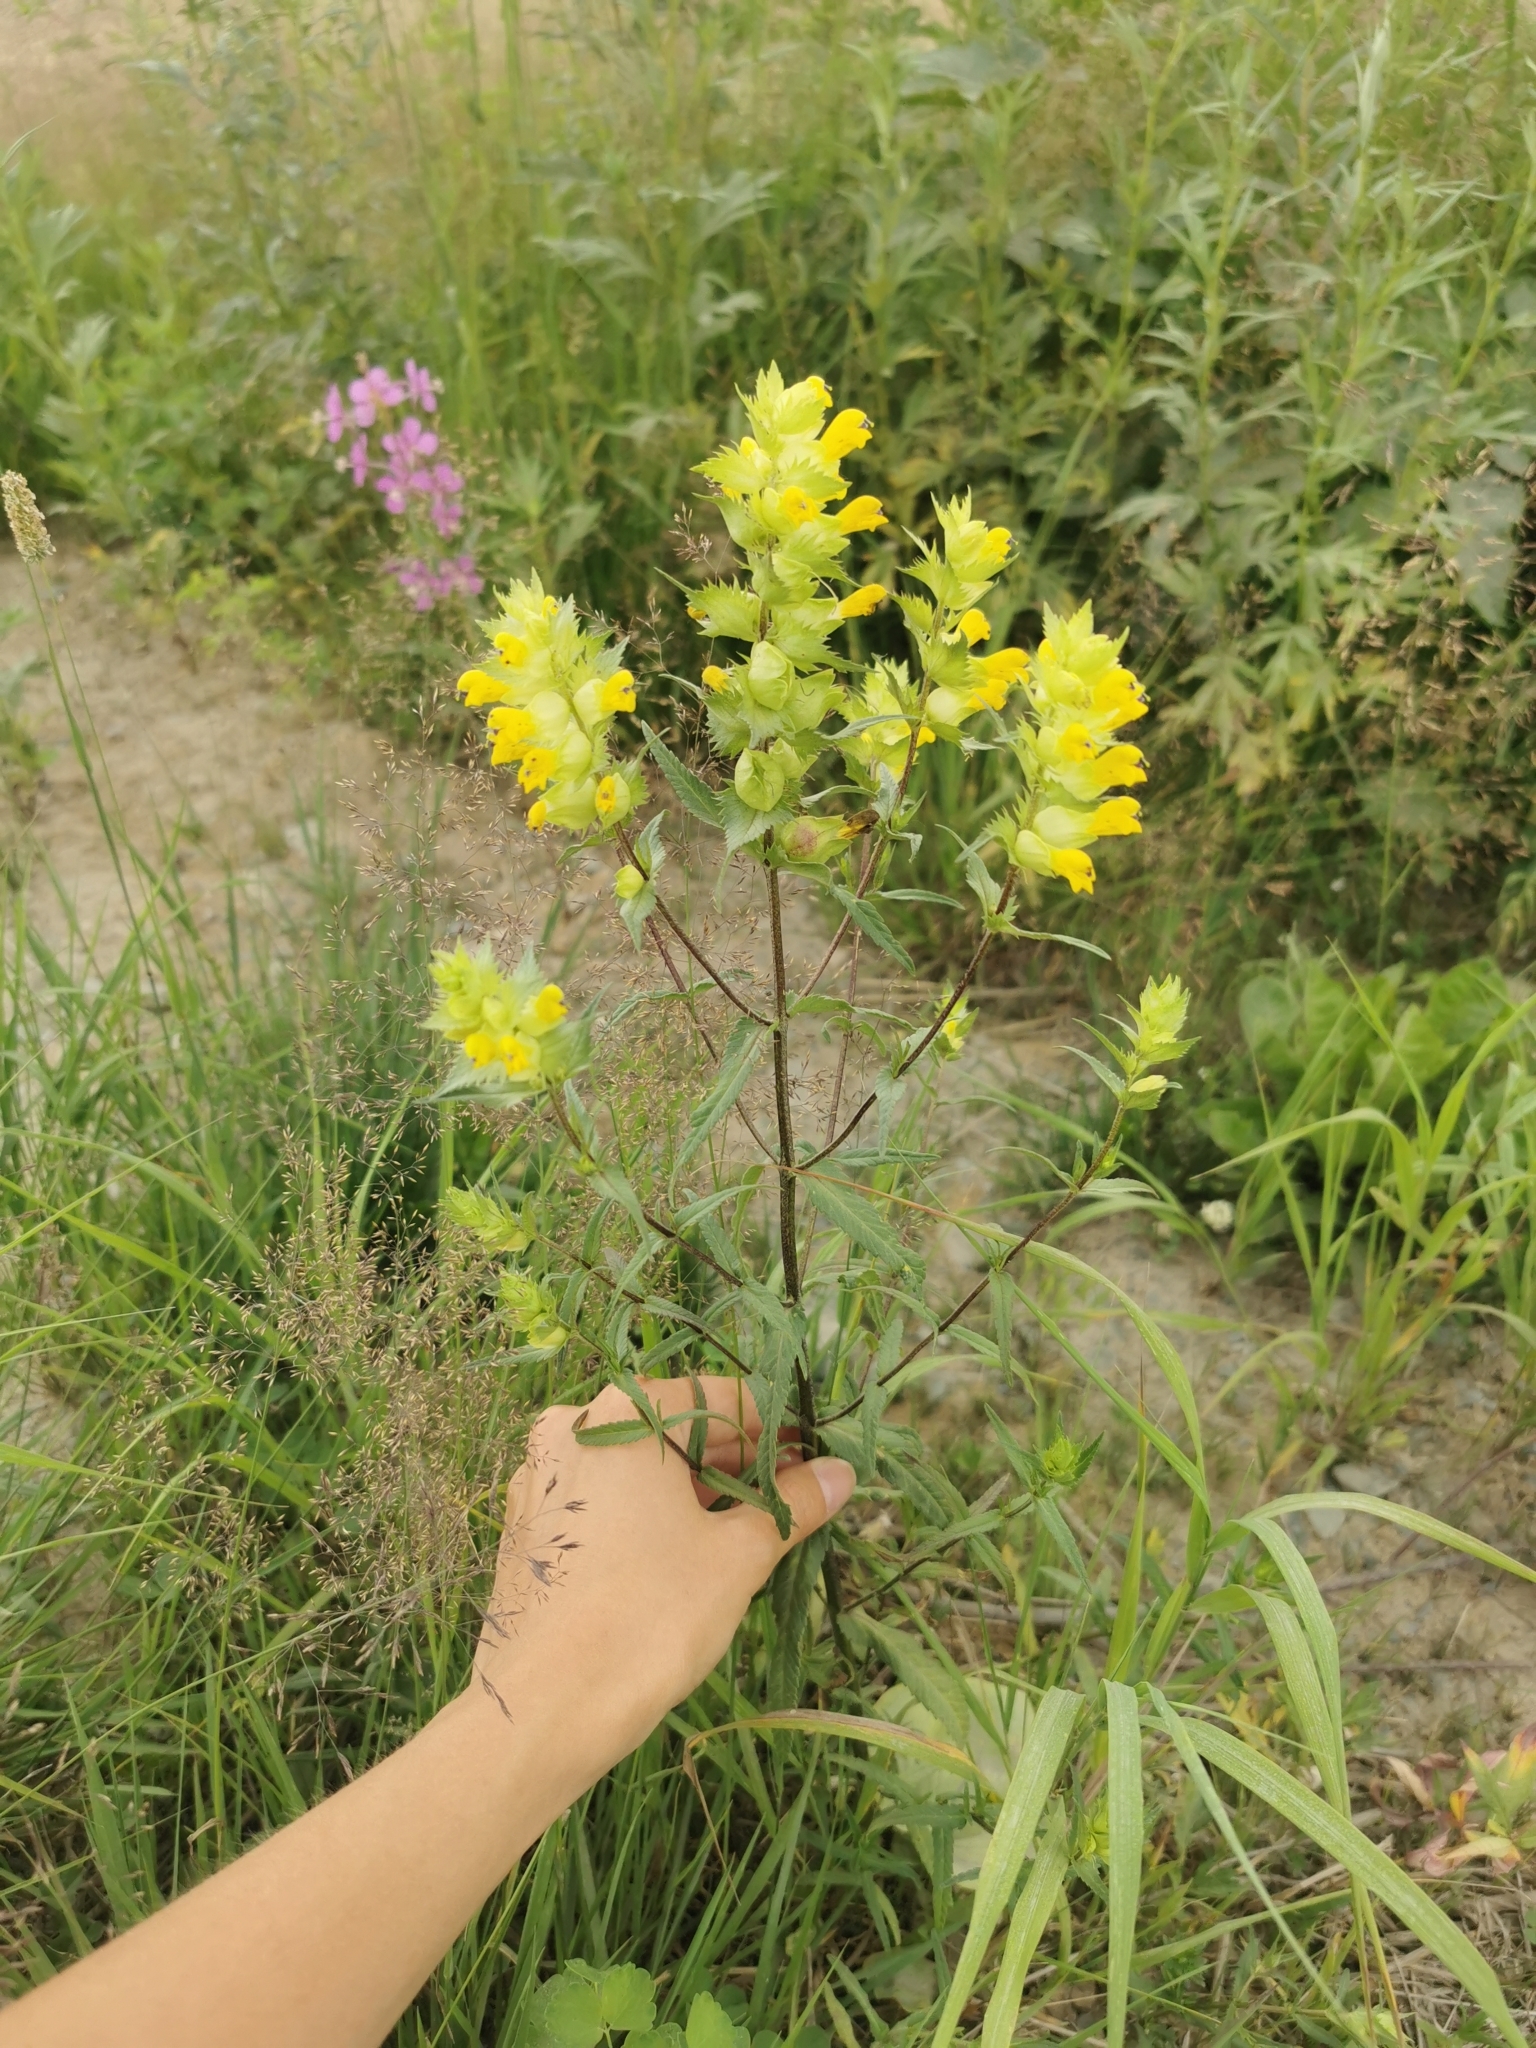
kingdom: Plantae
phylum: Tracheophyta
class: Magnoliopsida
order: Lamiales
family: Orobanchaceae
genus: Rhinanthus
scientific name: Rhinanthus serotinus
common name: Late-flowering yellow rattle
